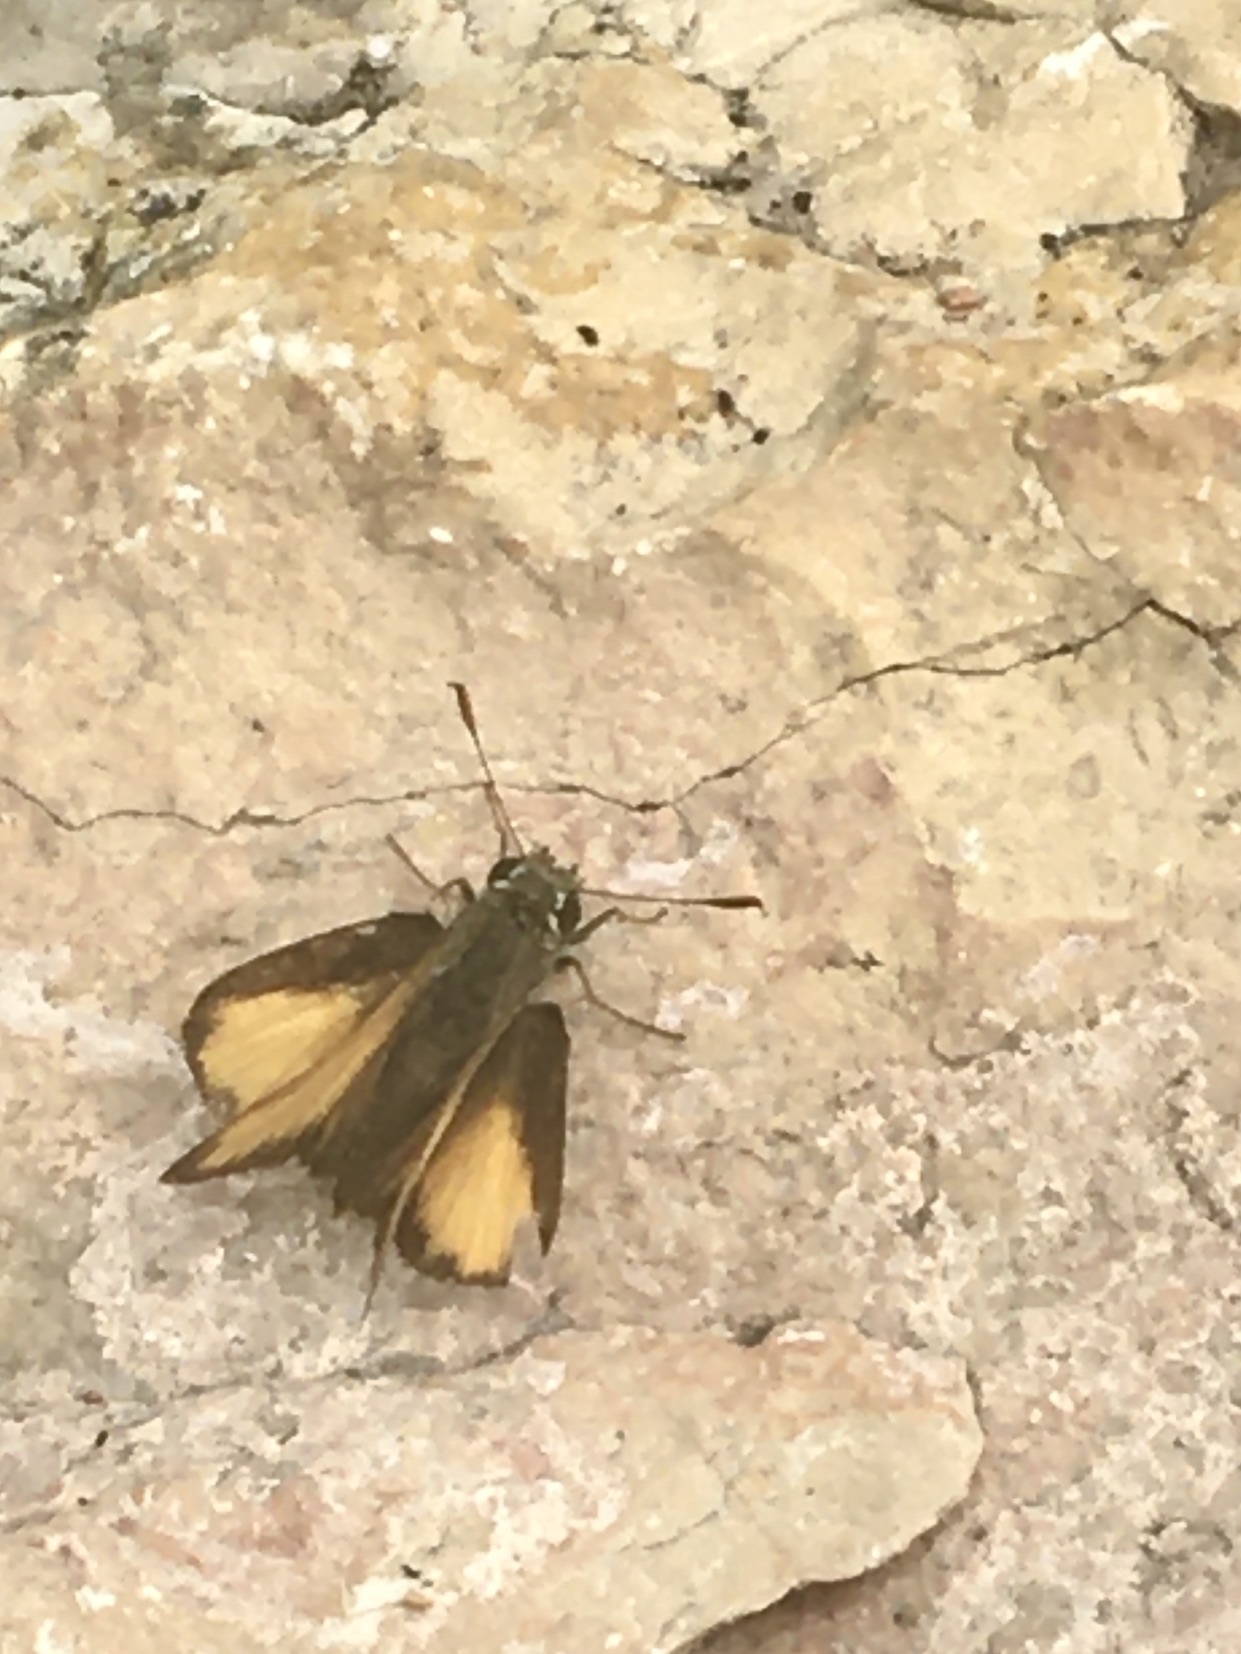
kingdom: Animalia
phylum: Arthropoda
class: Insecta
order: Lepidoptera
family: Hesperiidae
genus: Lon
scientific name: Lon taxiles
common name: Taxiles skipper
